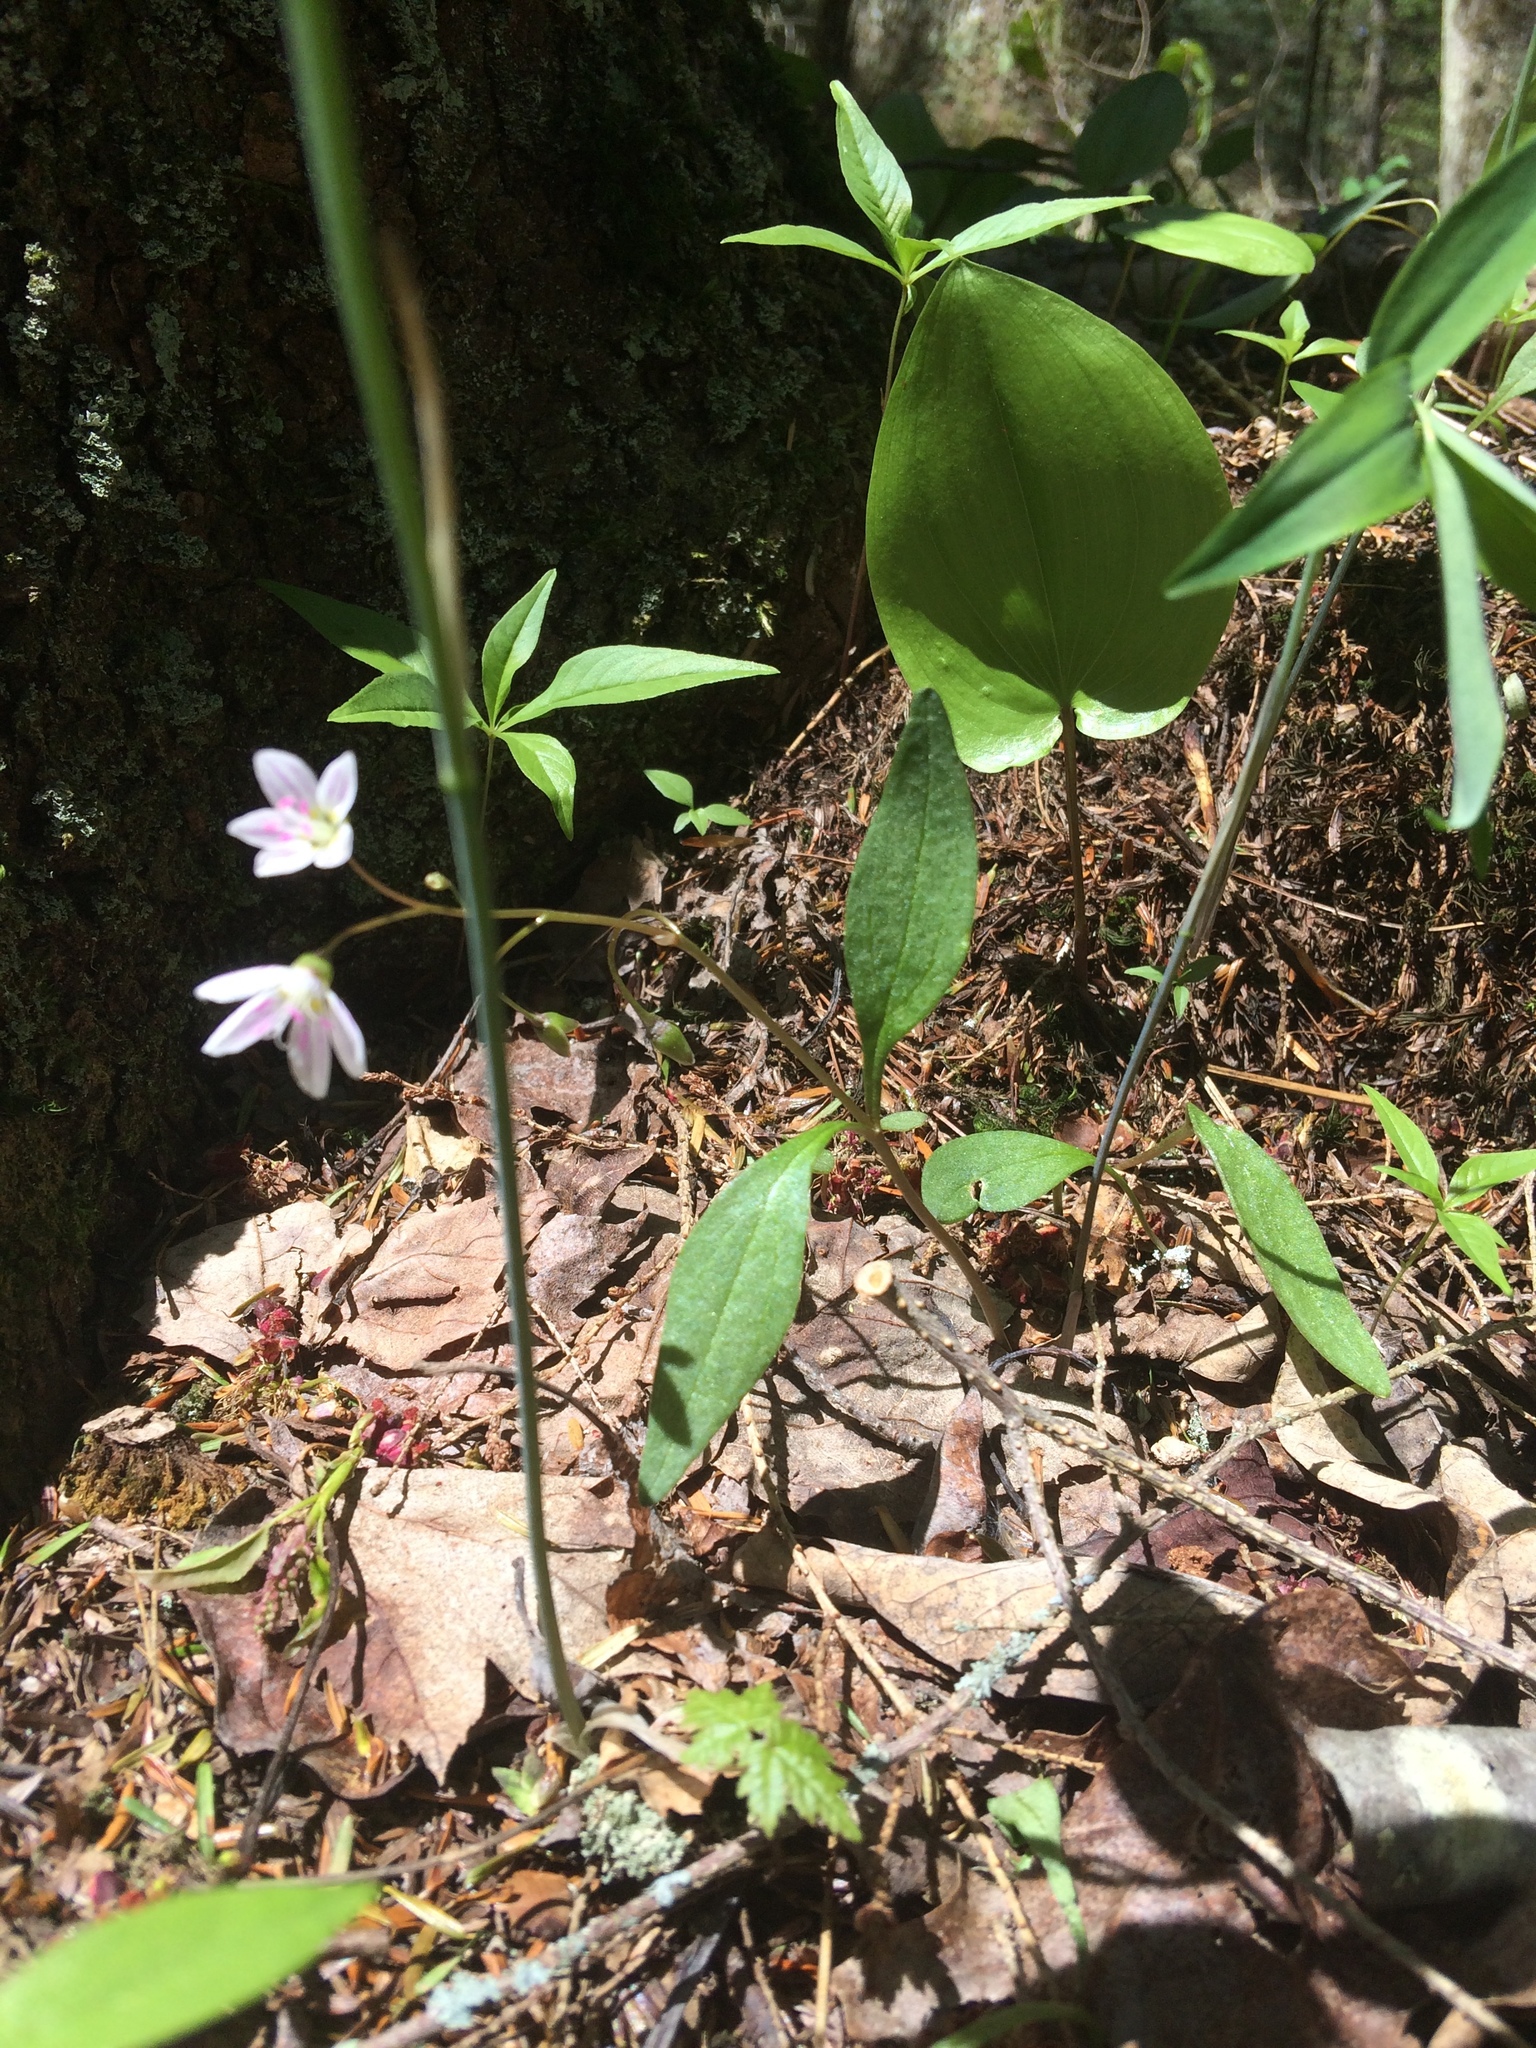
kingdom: Plantae
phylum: Tracheophyta
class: Magnoliopsida
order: Caryophyllales
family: Montiaceae
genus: Claytonia
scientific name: Claytonia caroliniana
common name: Carolina spring beauty
